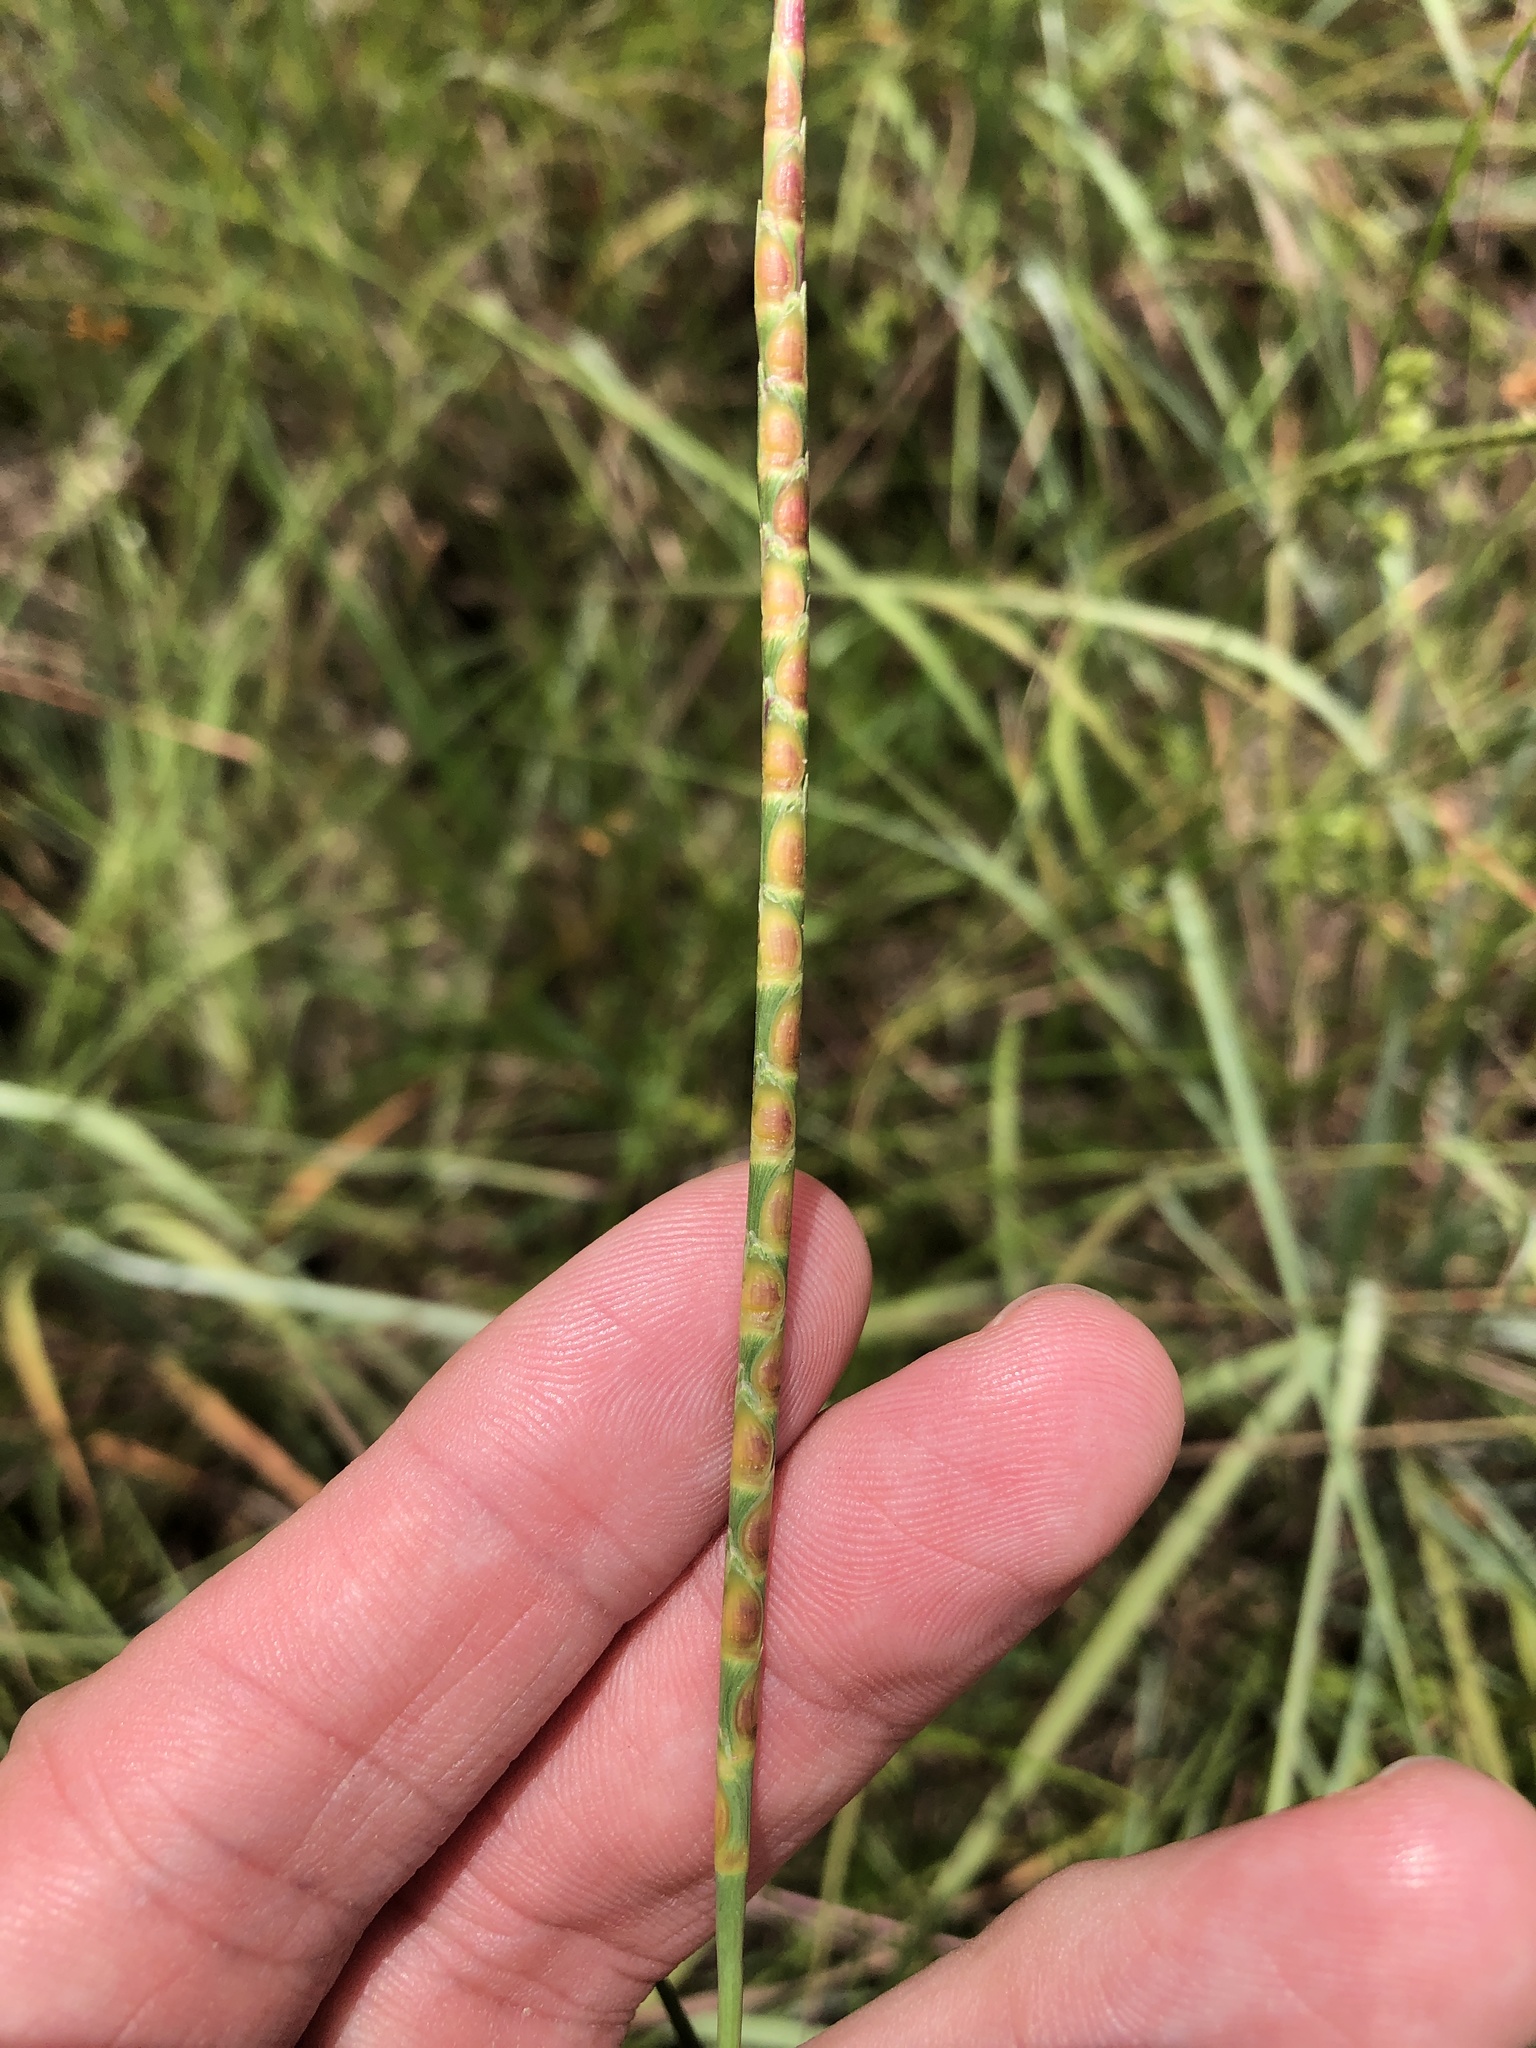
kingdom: Plantae
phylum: Tracheophyta
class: Liliopsida
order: Poales
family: Poaceae
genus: Rottboellia
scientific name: Rottboellia campestris
